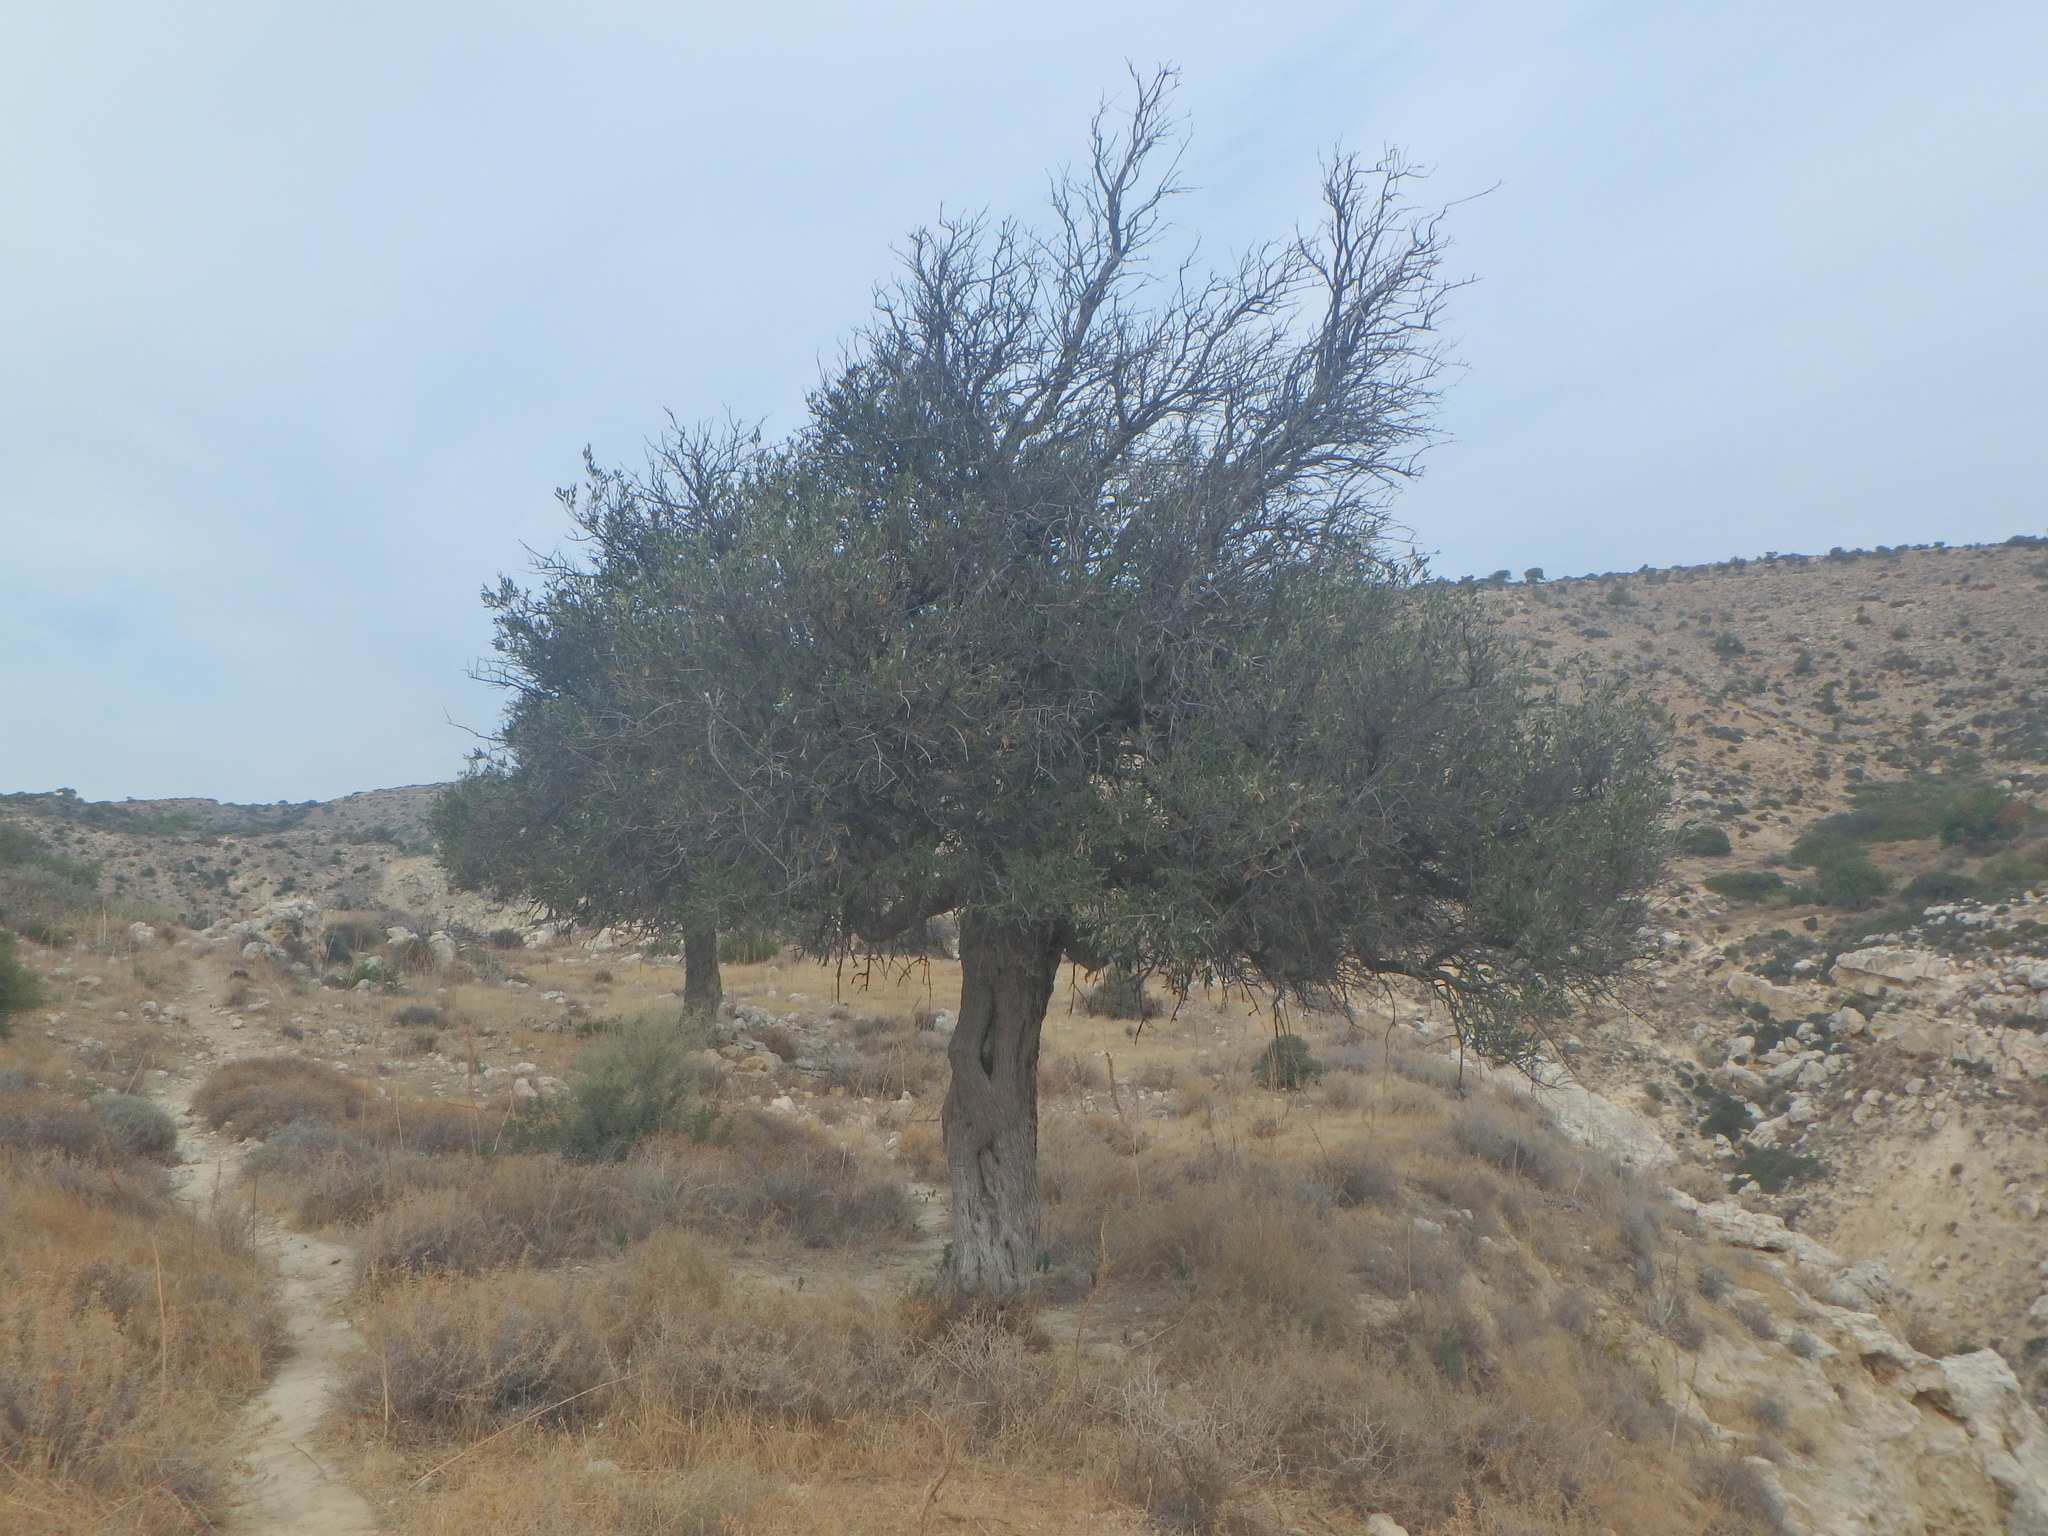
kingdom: Plantae
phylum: Tracheophyta
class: Magnoliopsida
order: Lamiales
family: Oleaceae
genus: Olea
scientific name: Olea europaea
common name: Olive
